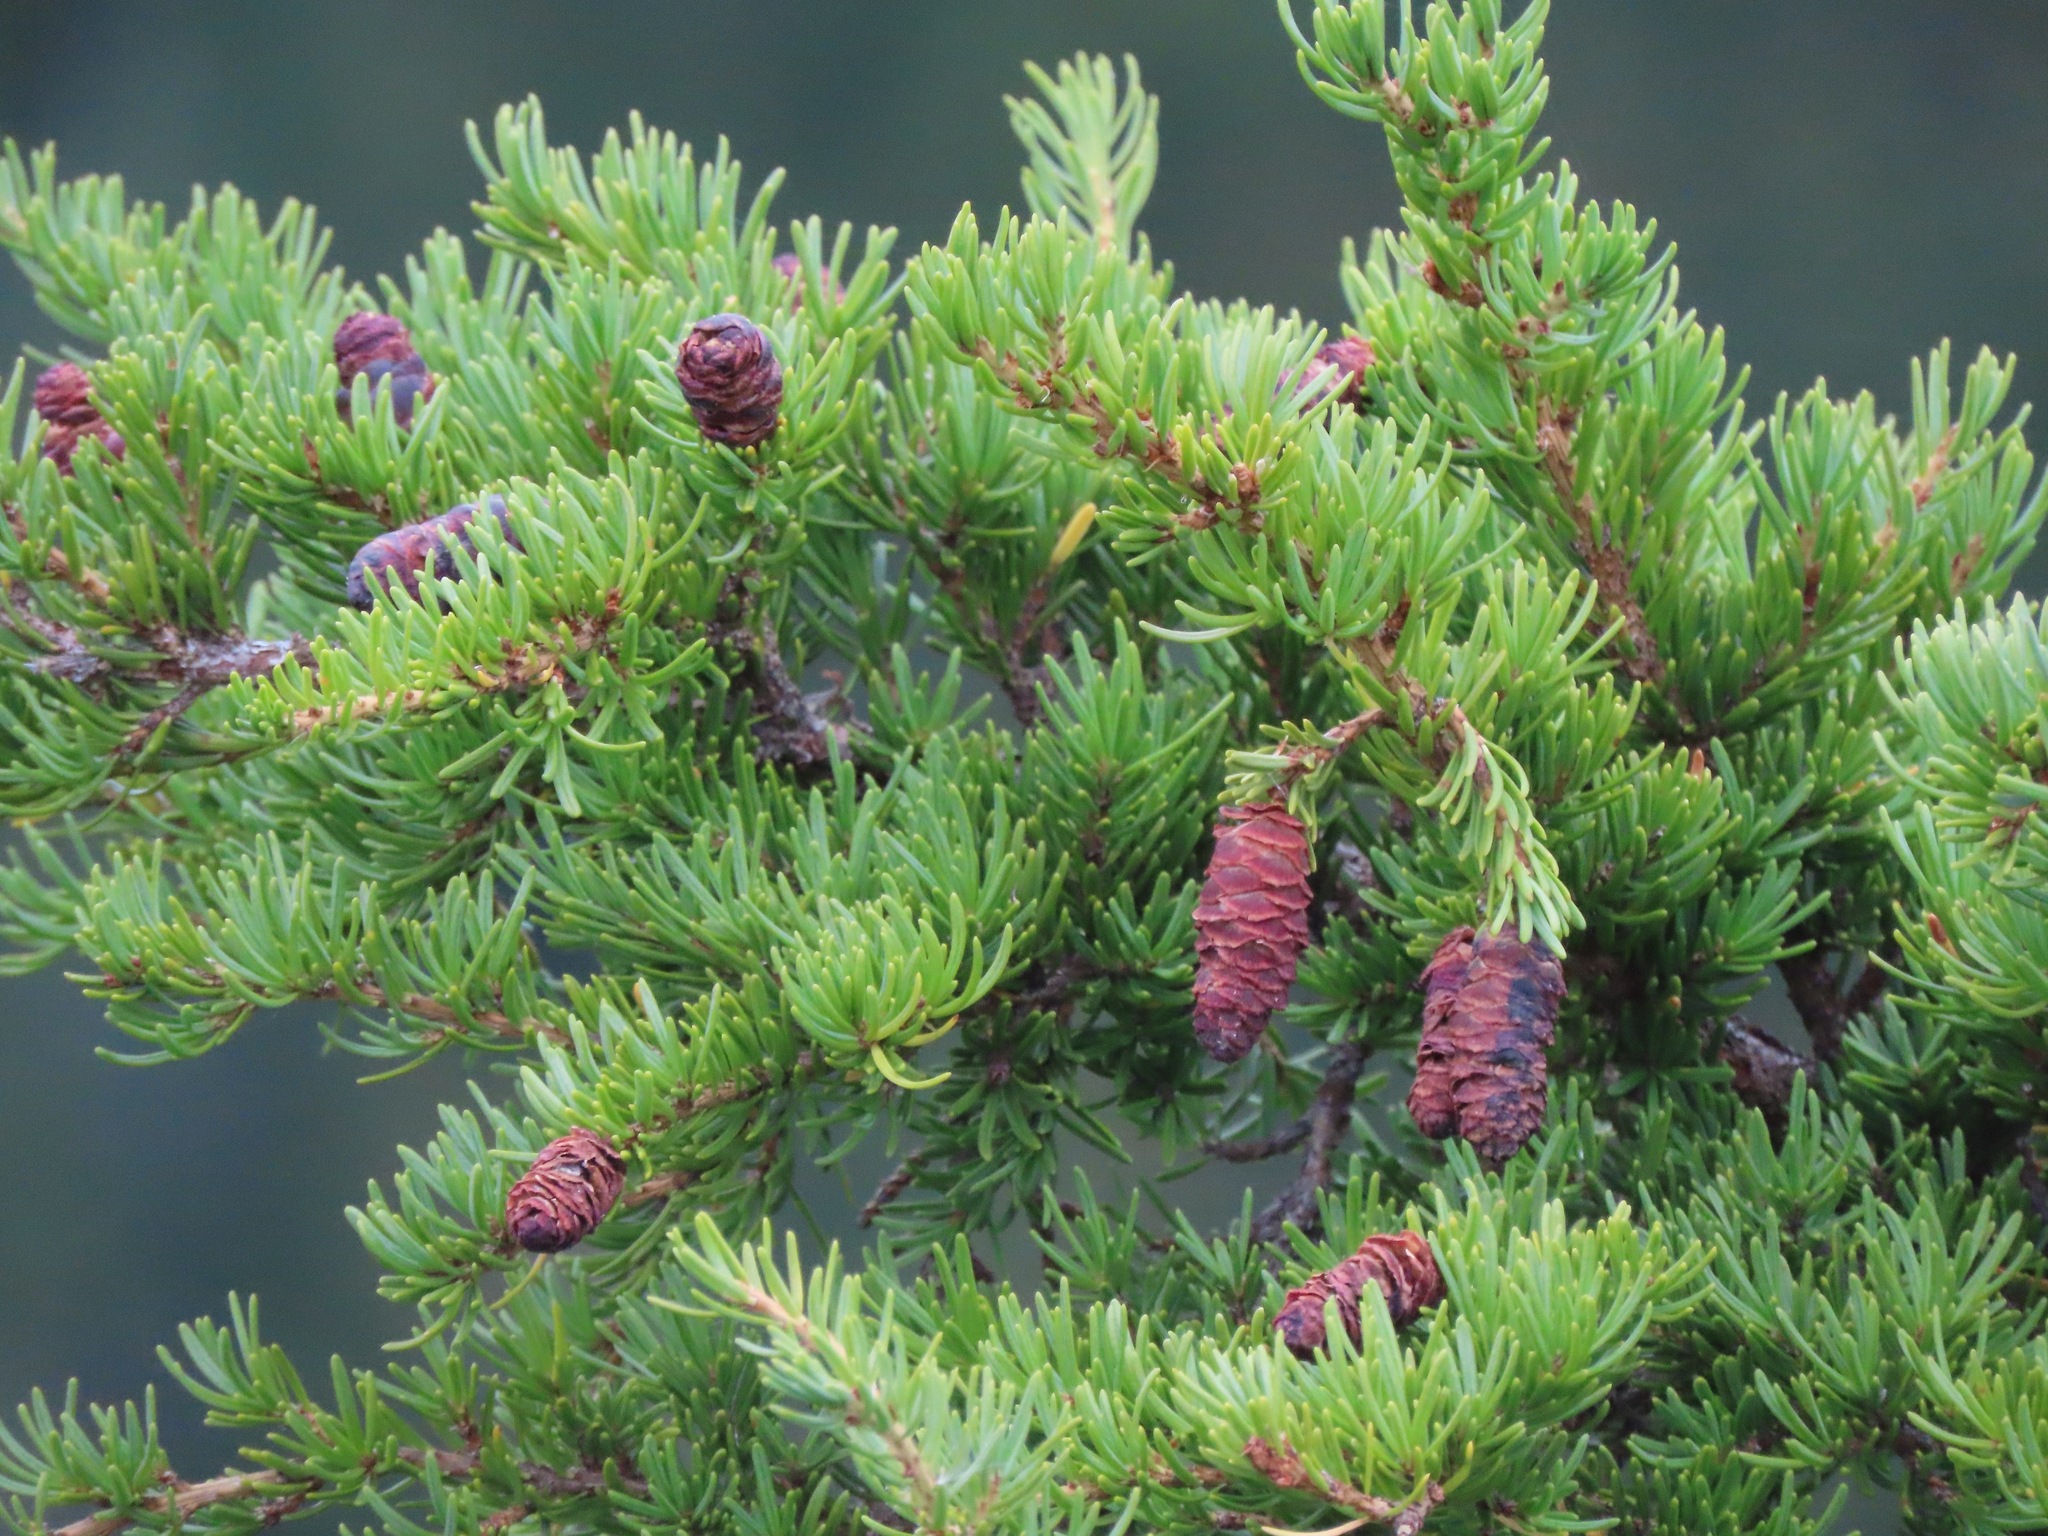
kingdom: Plantae
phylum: Tracheophyta
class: Pinopsida
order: Pinales
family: Pinaceae
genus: Tsuga
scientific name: Tsuga mertensiana
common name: Mountain hemlock
